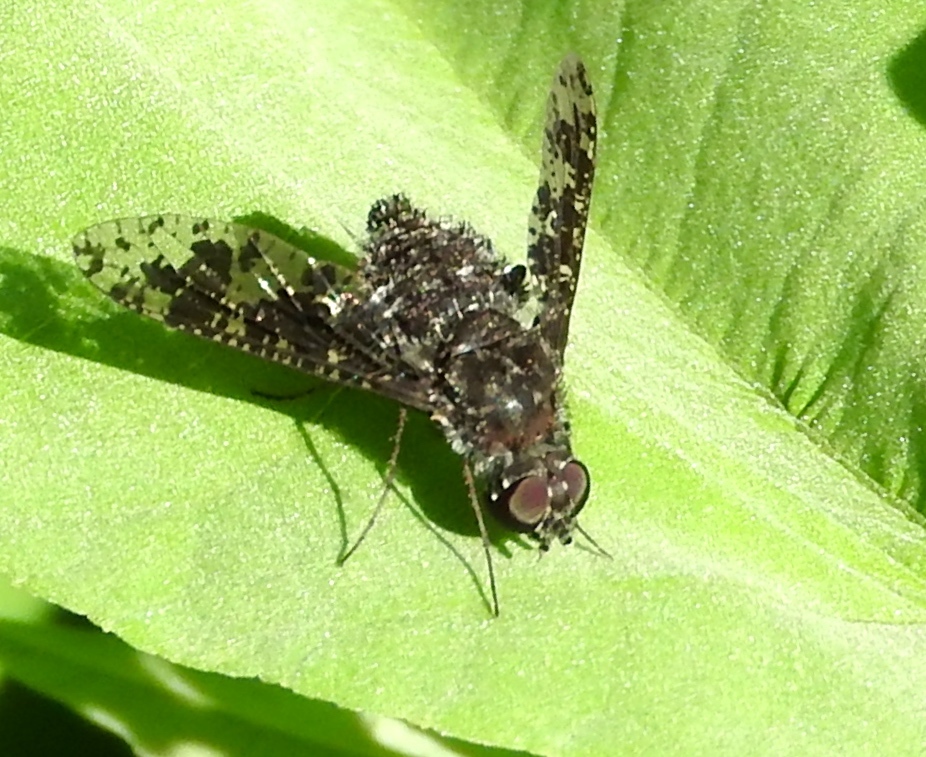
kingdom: Animalia
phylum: Arthropoda
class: Insecta
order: Diptera
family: Bombyliidae
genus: Anthrax
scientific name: Anthrax
